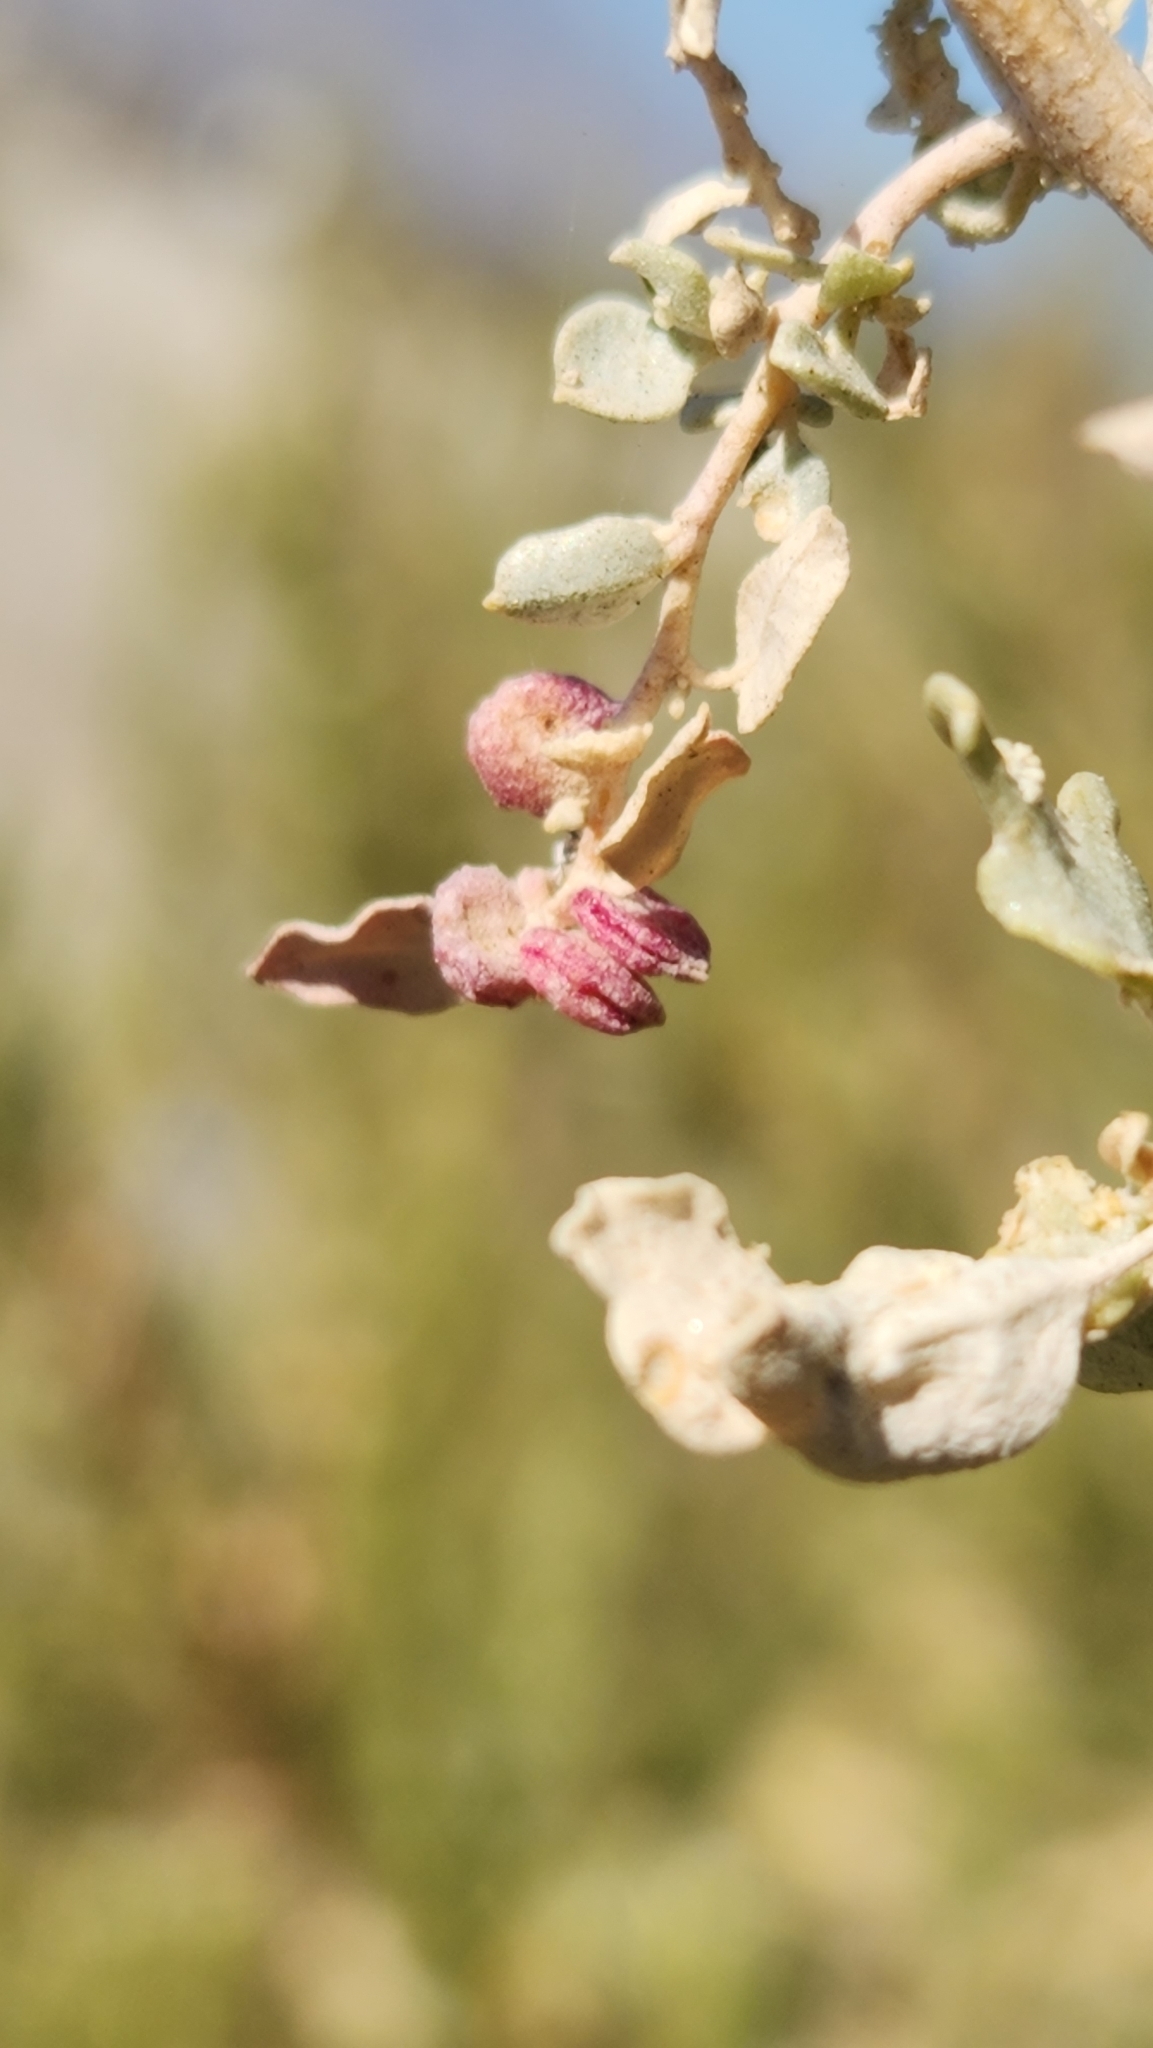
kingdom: Plantae
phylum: Tracheophyta
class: Magnoliopsida
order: Caryophyllales
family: Amaranthaceae
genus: Atriplex
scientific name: Atriplex lentiformis
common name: Big saltbush
